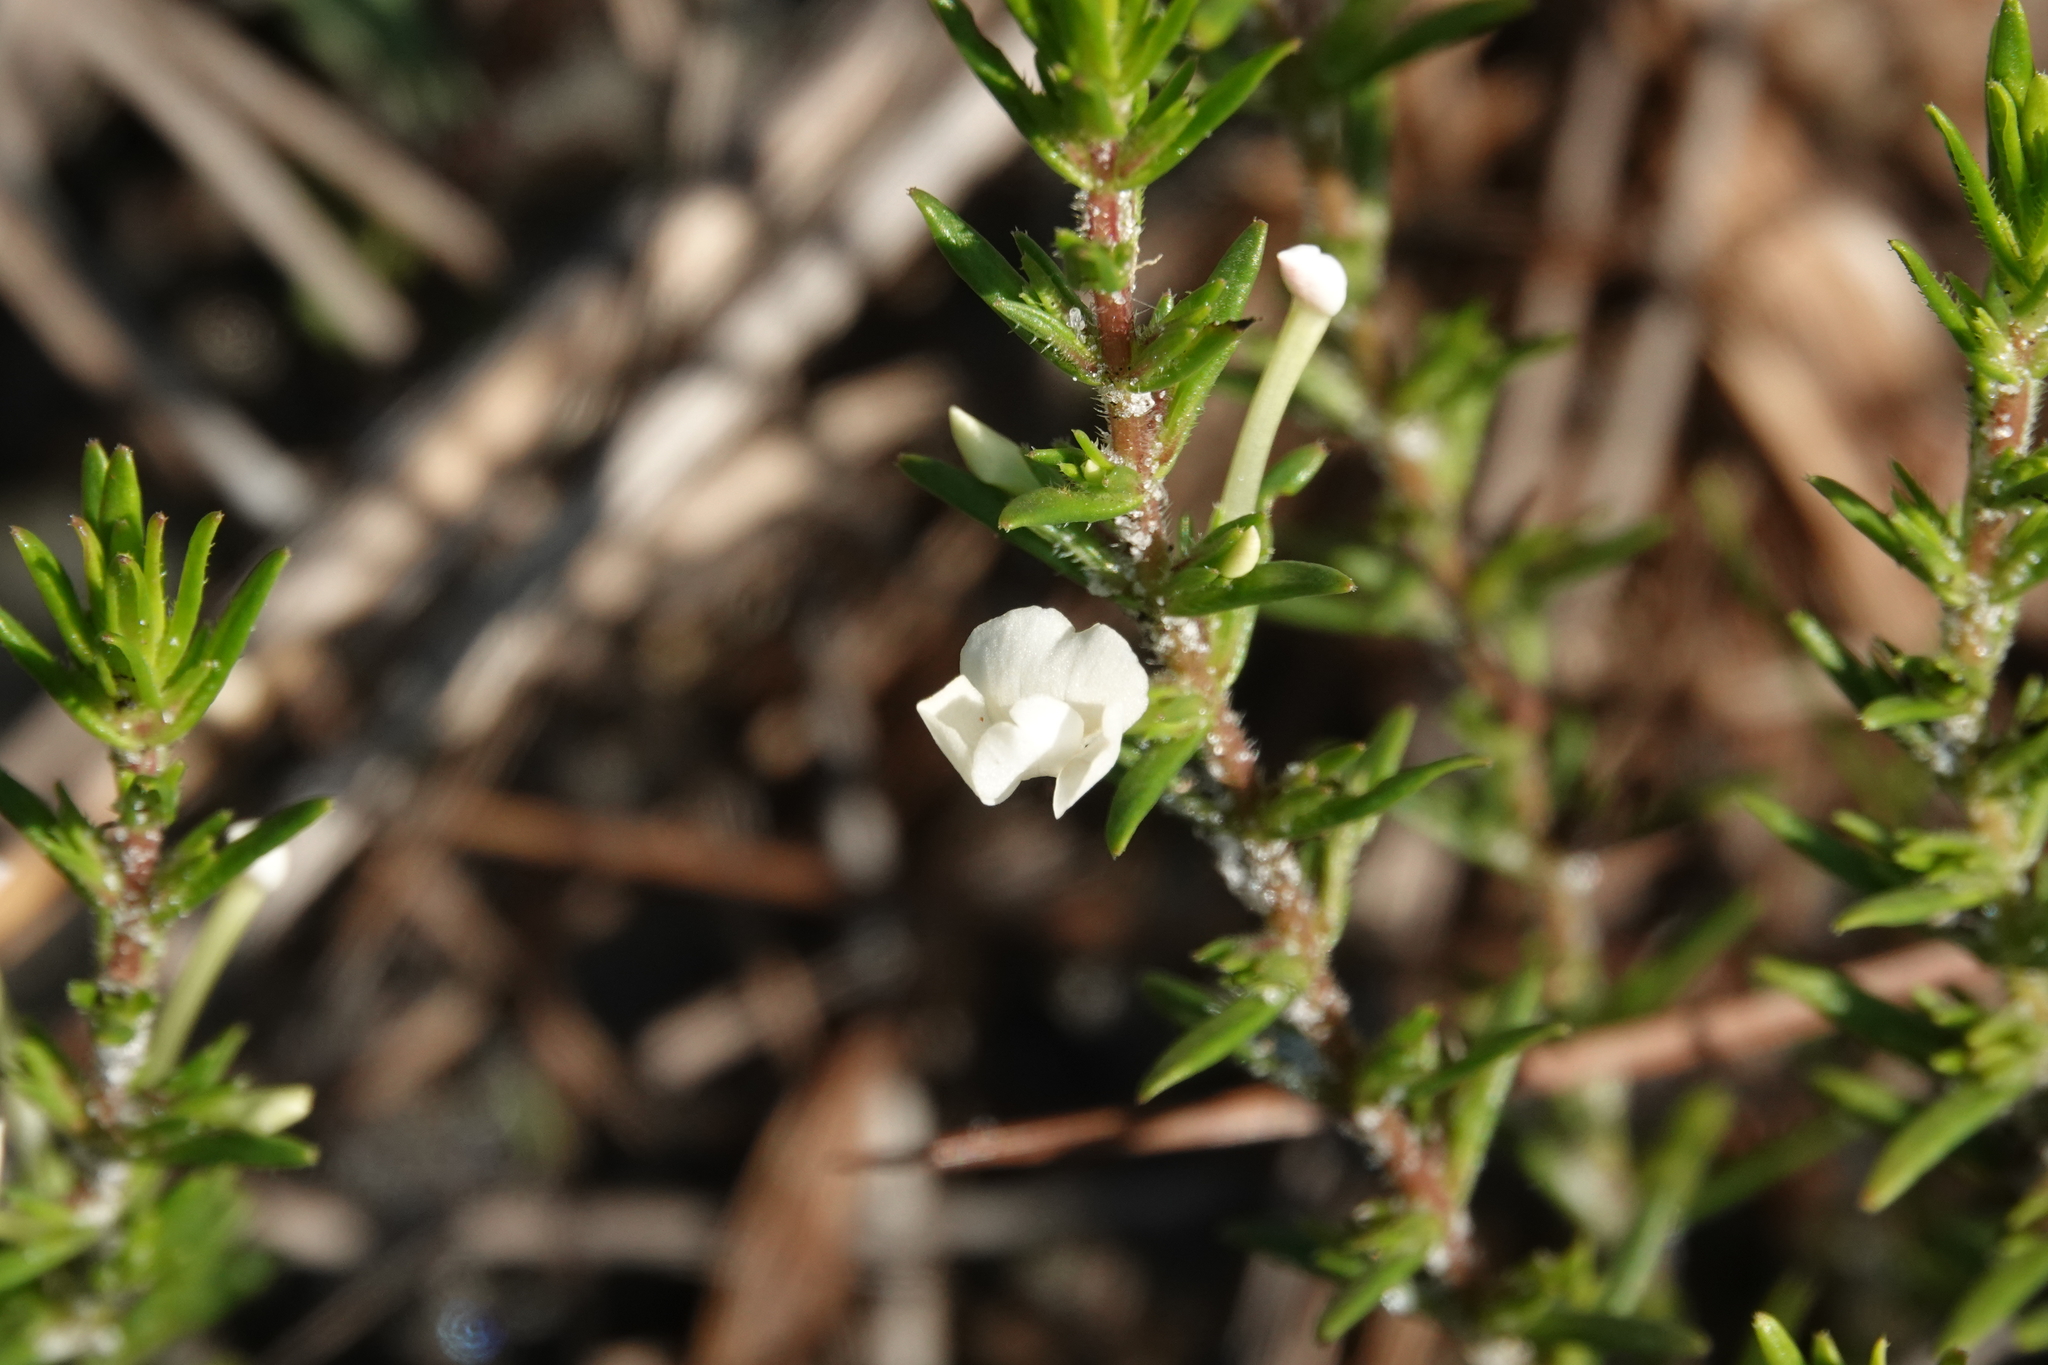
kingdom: Plantae
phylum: Tracheophyta
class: Magnoliopsida
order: Lamiales
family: Plantaginaceae
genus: Gratiola
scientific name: Gratiola hispida
